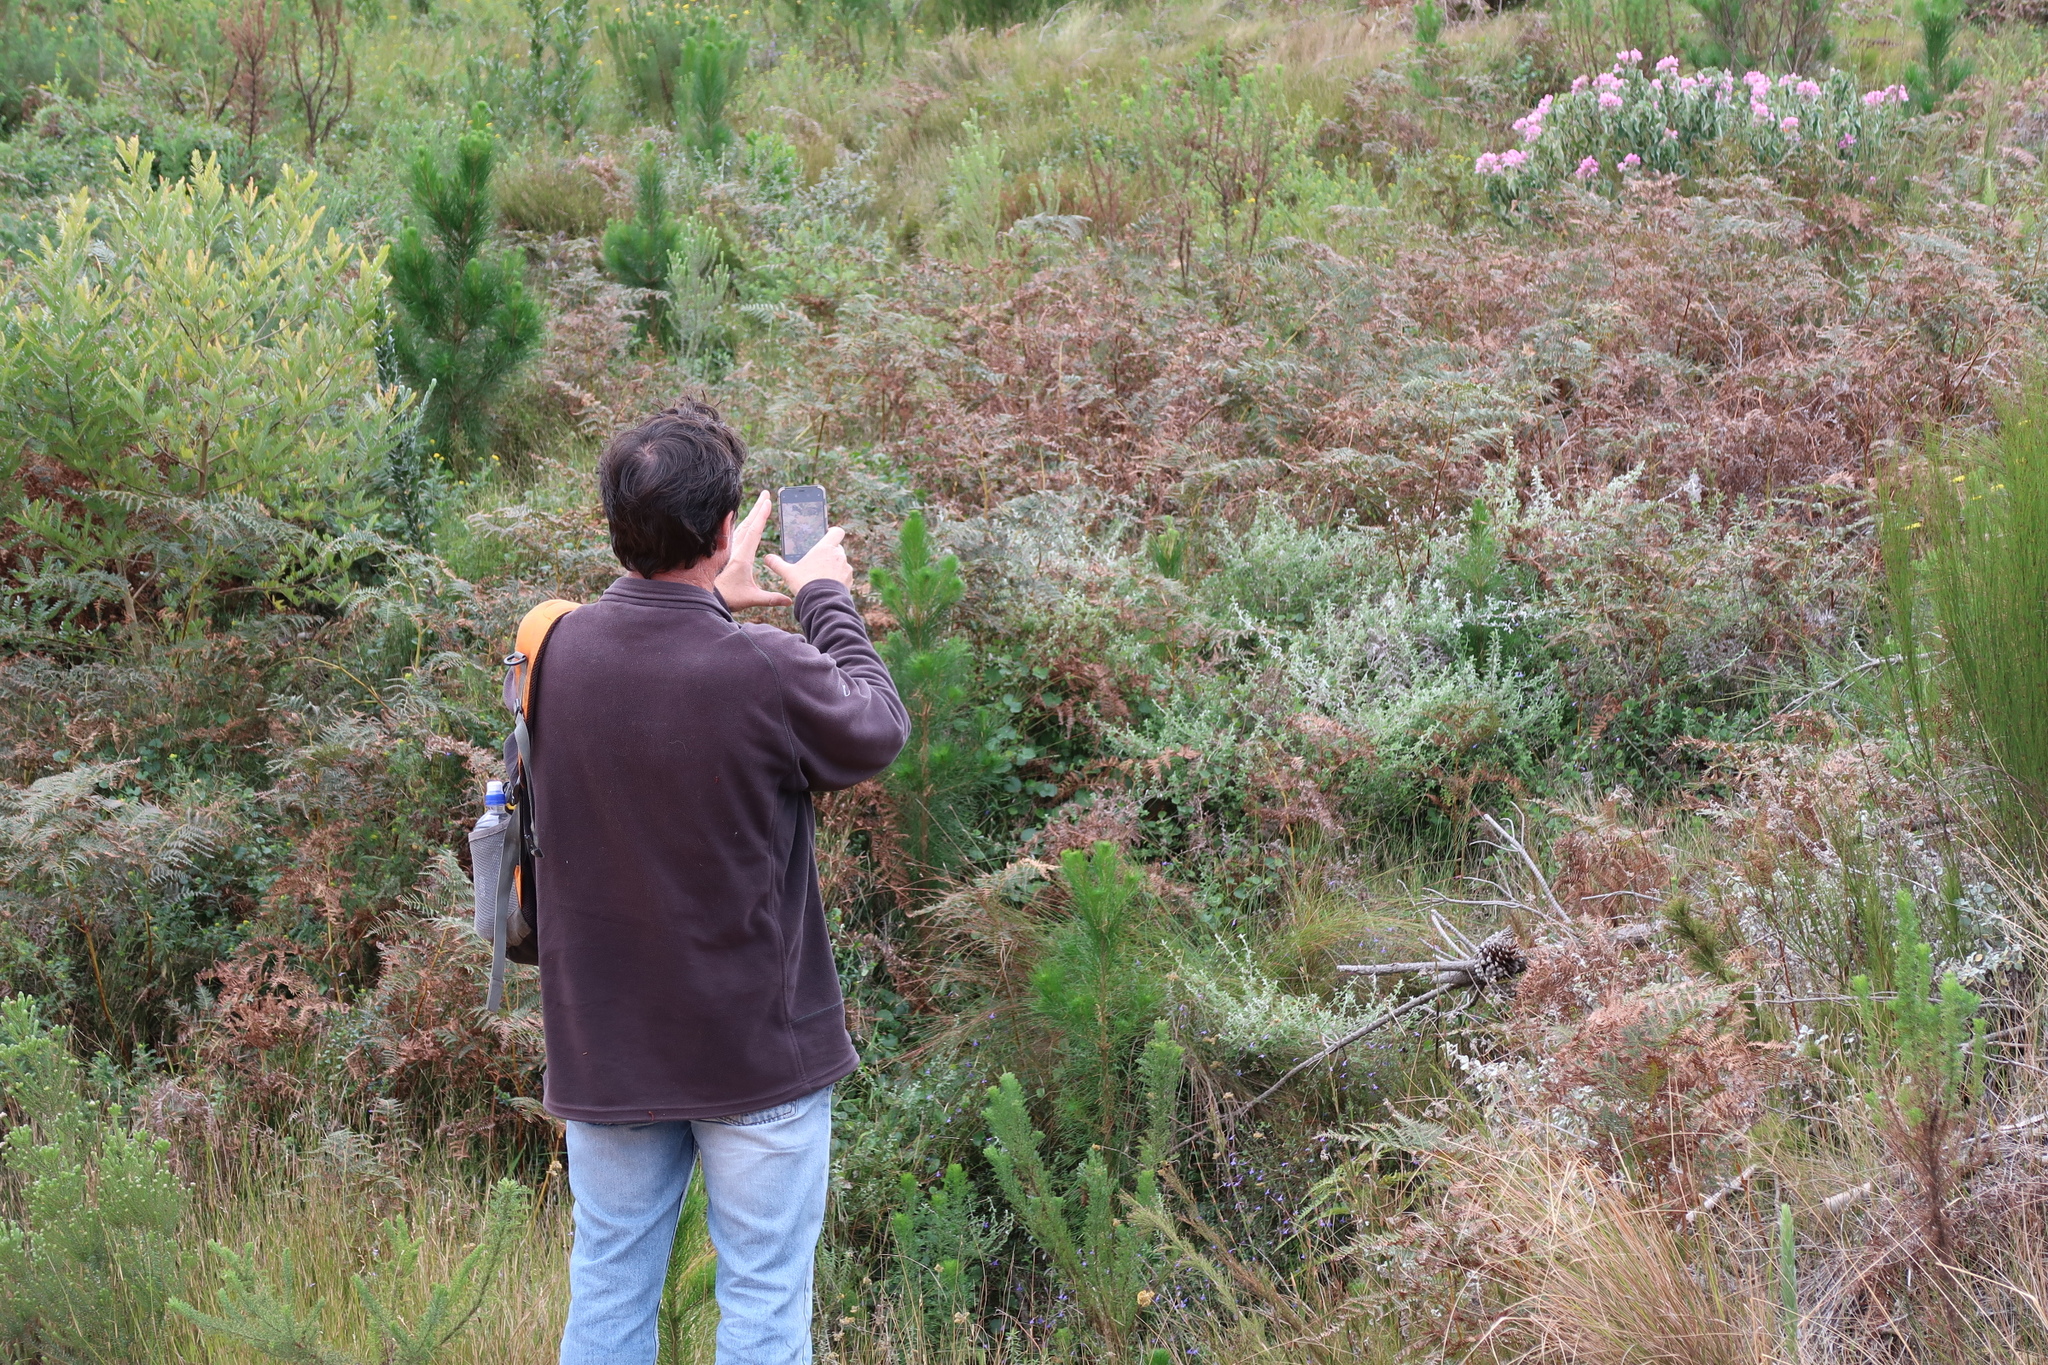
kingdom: Plantae
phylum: Tracheophyta
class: Magnoliopsida
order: Geraniales
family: Geraniaceae
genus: Pelargonium
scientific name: Pelargonium cordifolium
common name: Heart-leaf pelargonium
